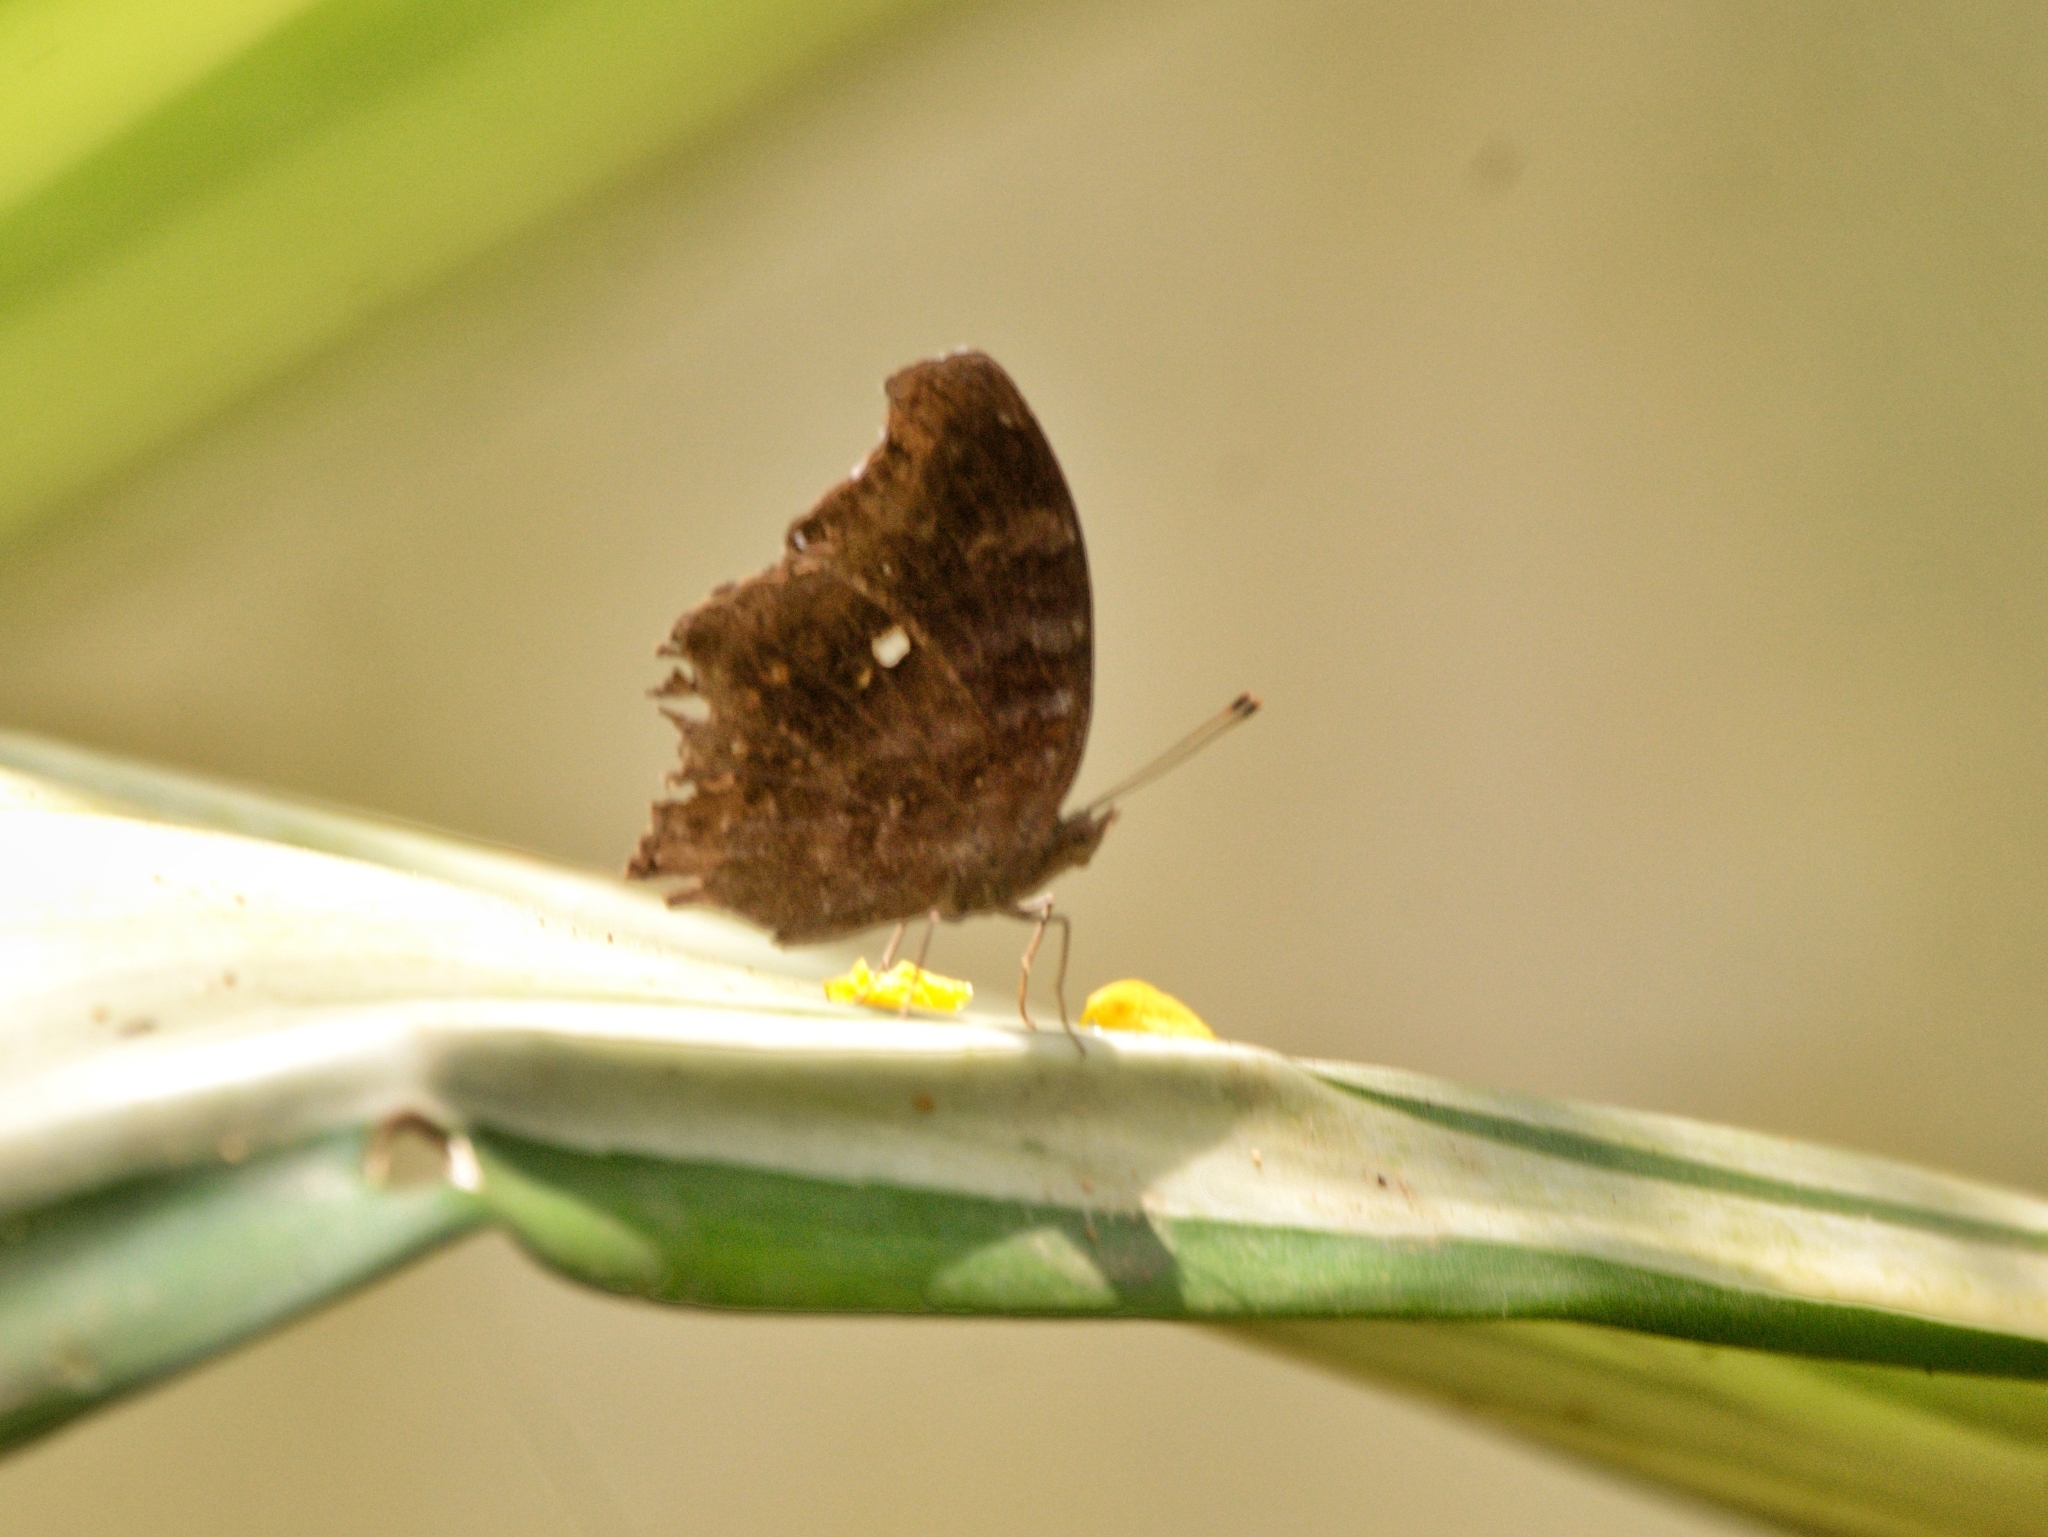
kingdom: Animalia
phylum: Arthropoda
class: Insecta
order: Lepidoptera
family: Nymphalidae
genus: Junonia
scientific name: Junonia iphita
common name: Chocolate pansy
